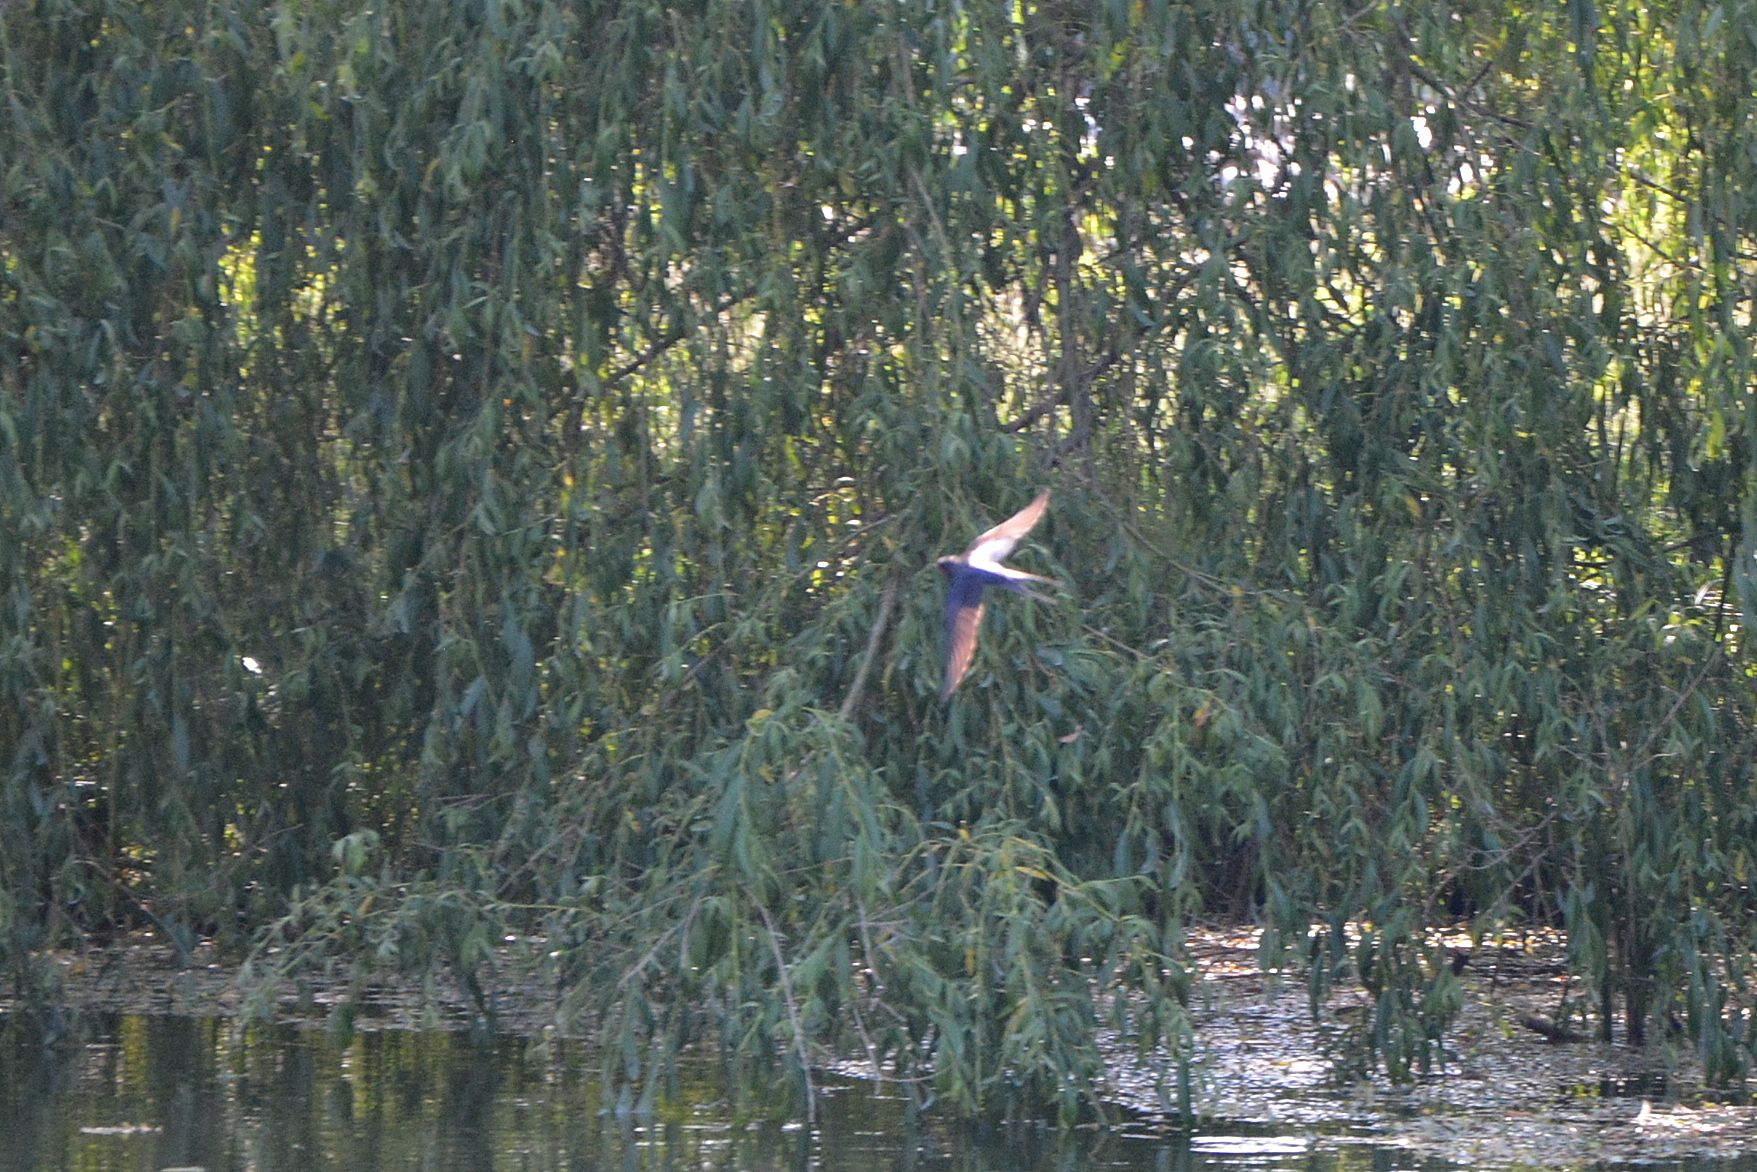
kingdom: Animalia
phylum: Chordata
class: Aves
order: Passeriformes
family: Hirundinidae
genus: Hirundo
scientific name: Hirundo rustica
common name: Barn swallow
